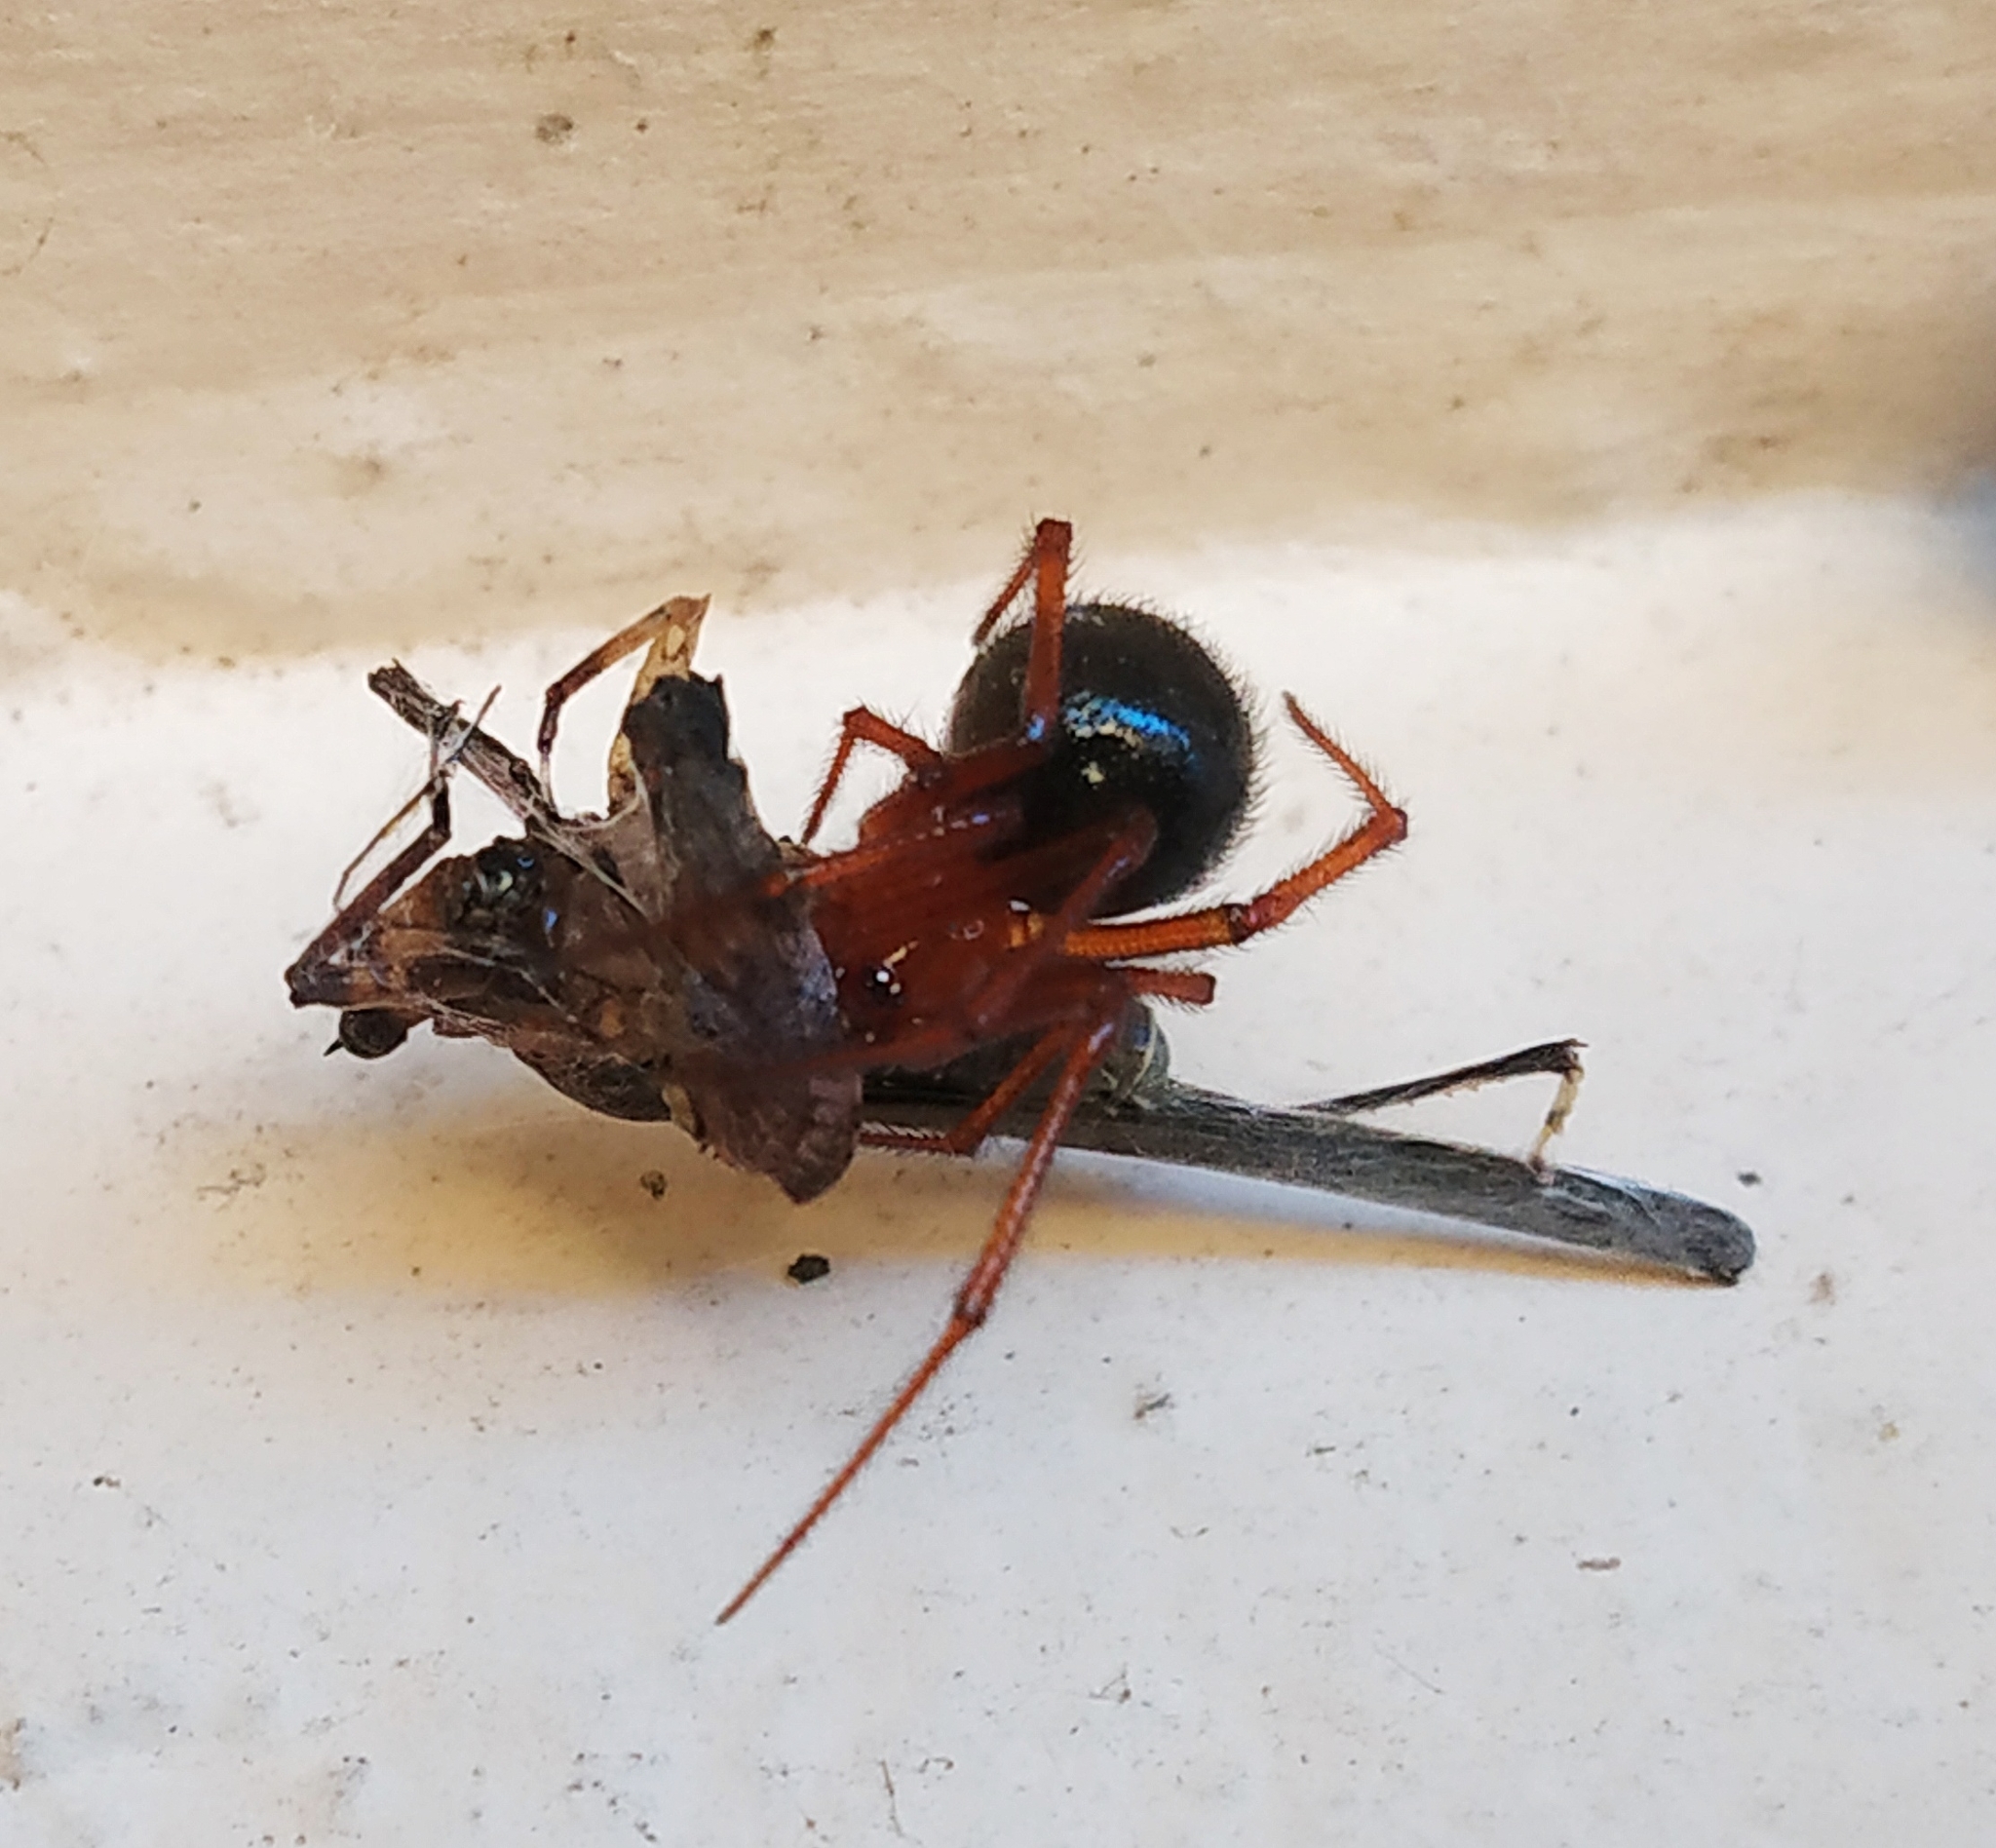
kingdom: Animalia
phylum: Arthropoda
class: Arachnida
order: Araneae
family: Theridiidae
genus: Nesticodes
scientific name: Nesticodes rufipes
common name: Cobweb spiders
